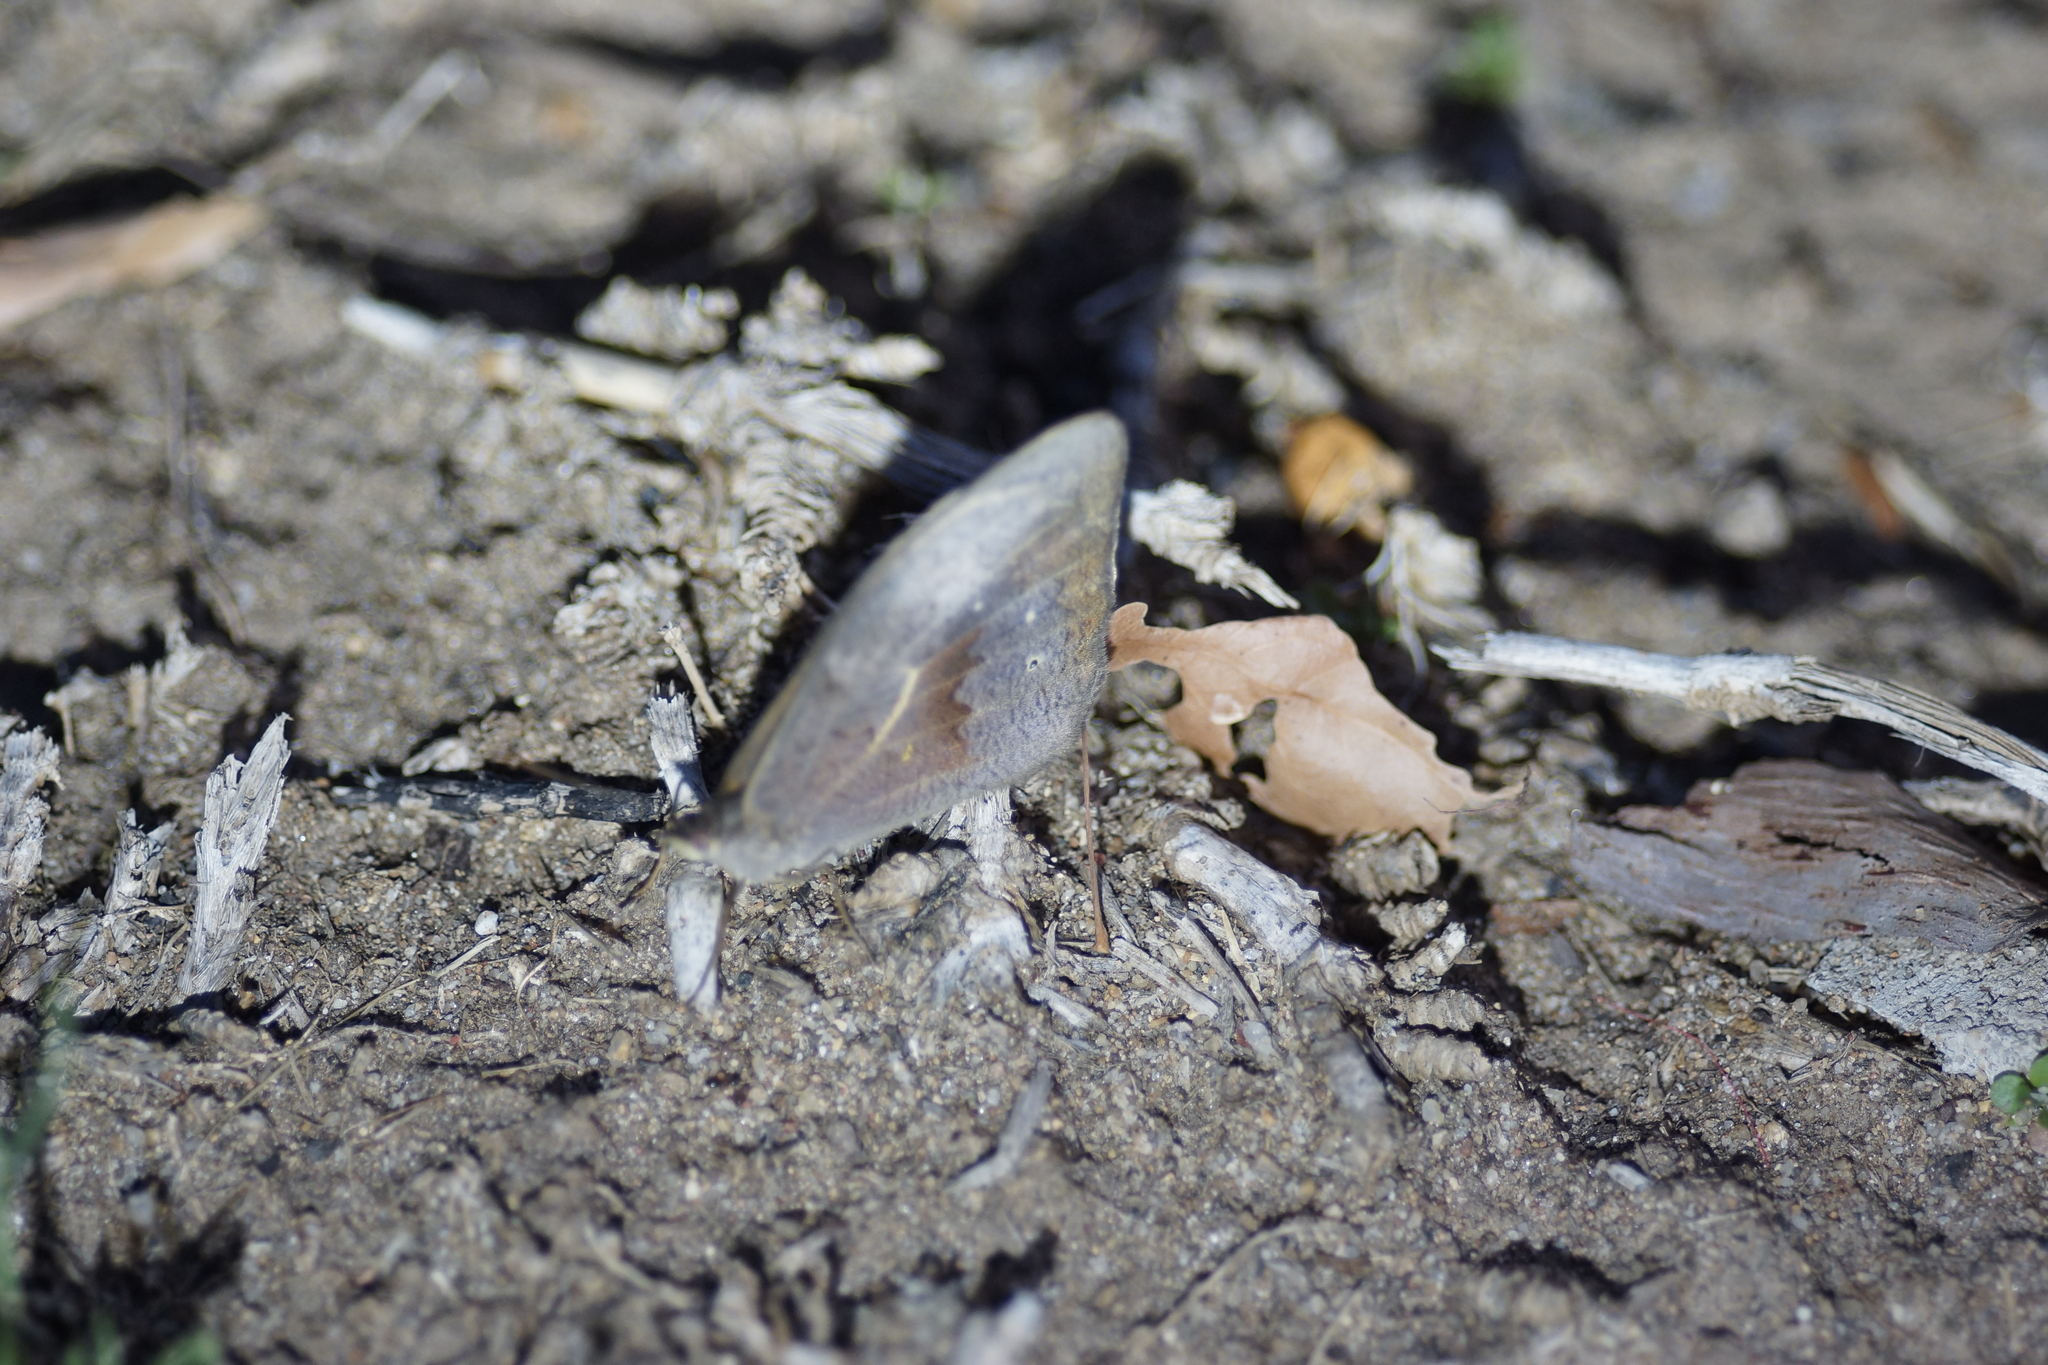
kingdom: Animalia
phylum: Arthropoda
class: Insecta
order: Lepidoptera
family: Nymphalidae
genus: Heteronympha
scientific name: Heteronympha merope
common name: Common brown
